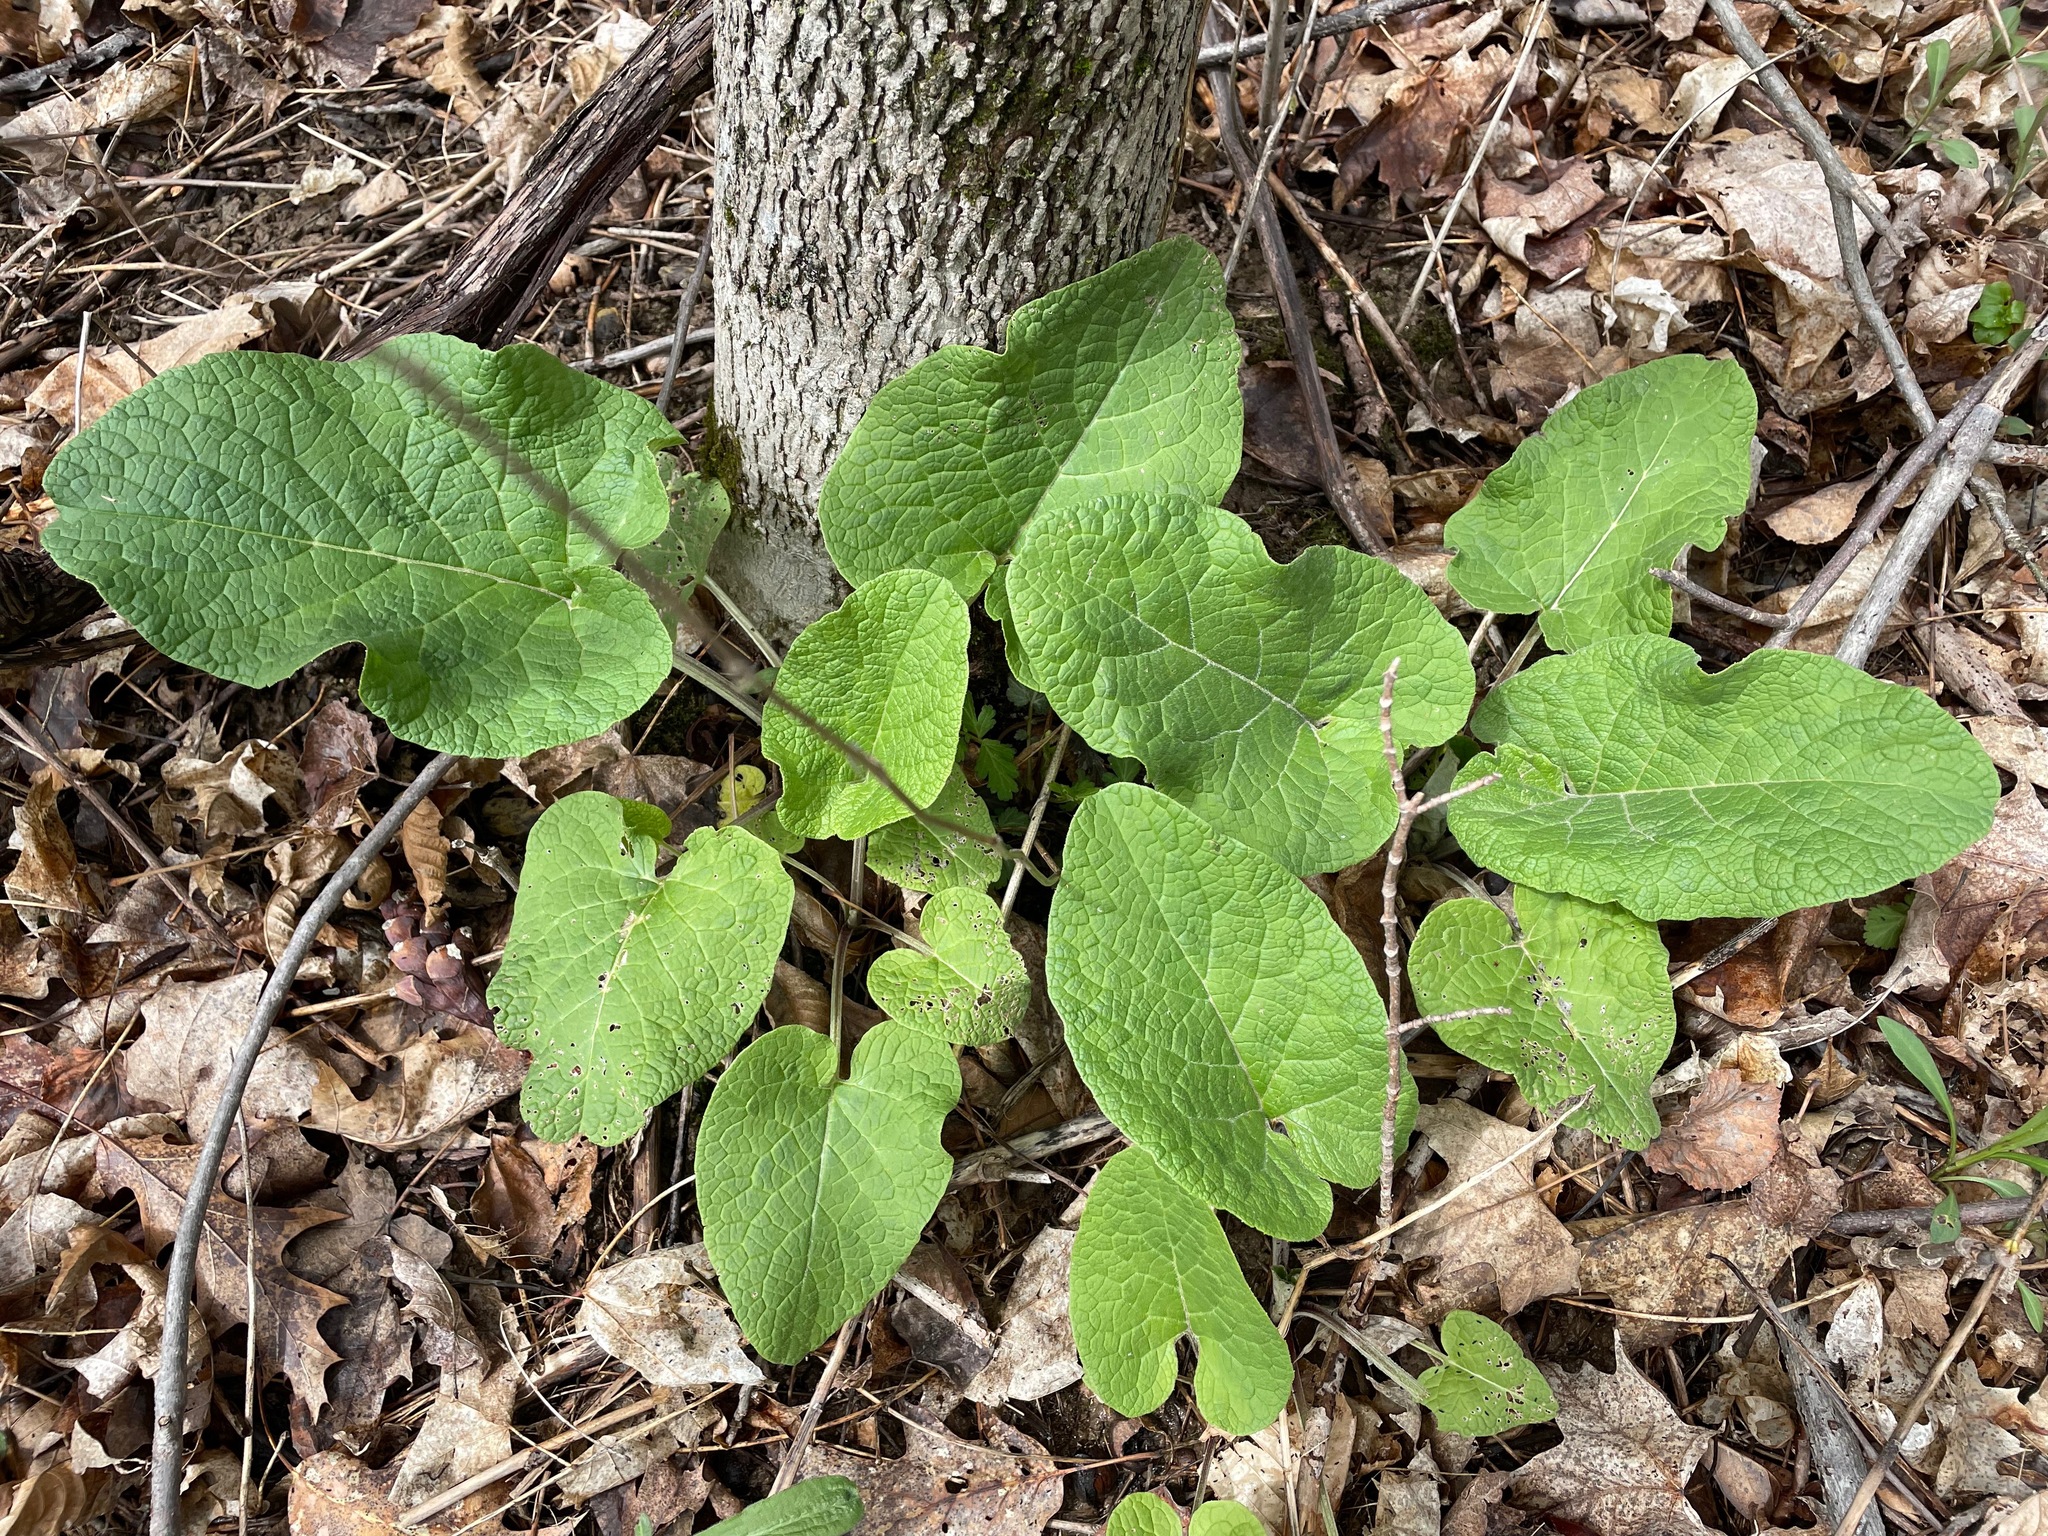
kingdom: Plantae
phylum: Tracheophyta
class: Magnoliopsida
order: Asterales
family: Asteraceae
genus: Arctium
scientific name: Arctium
